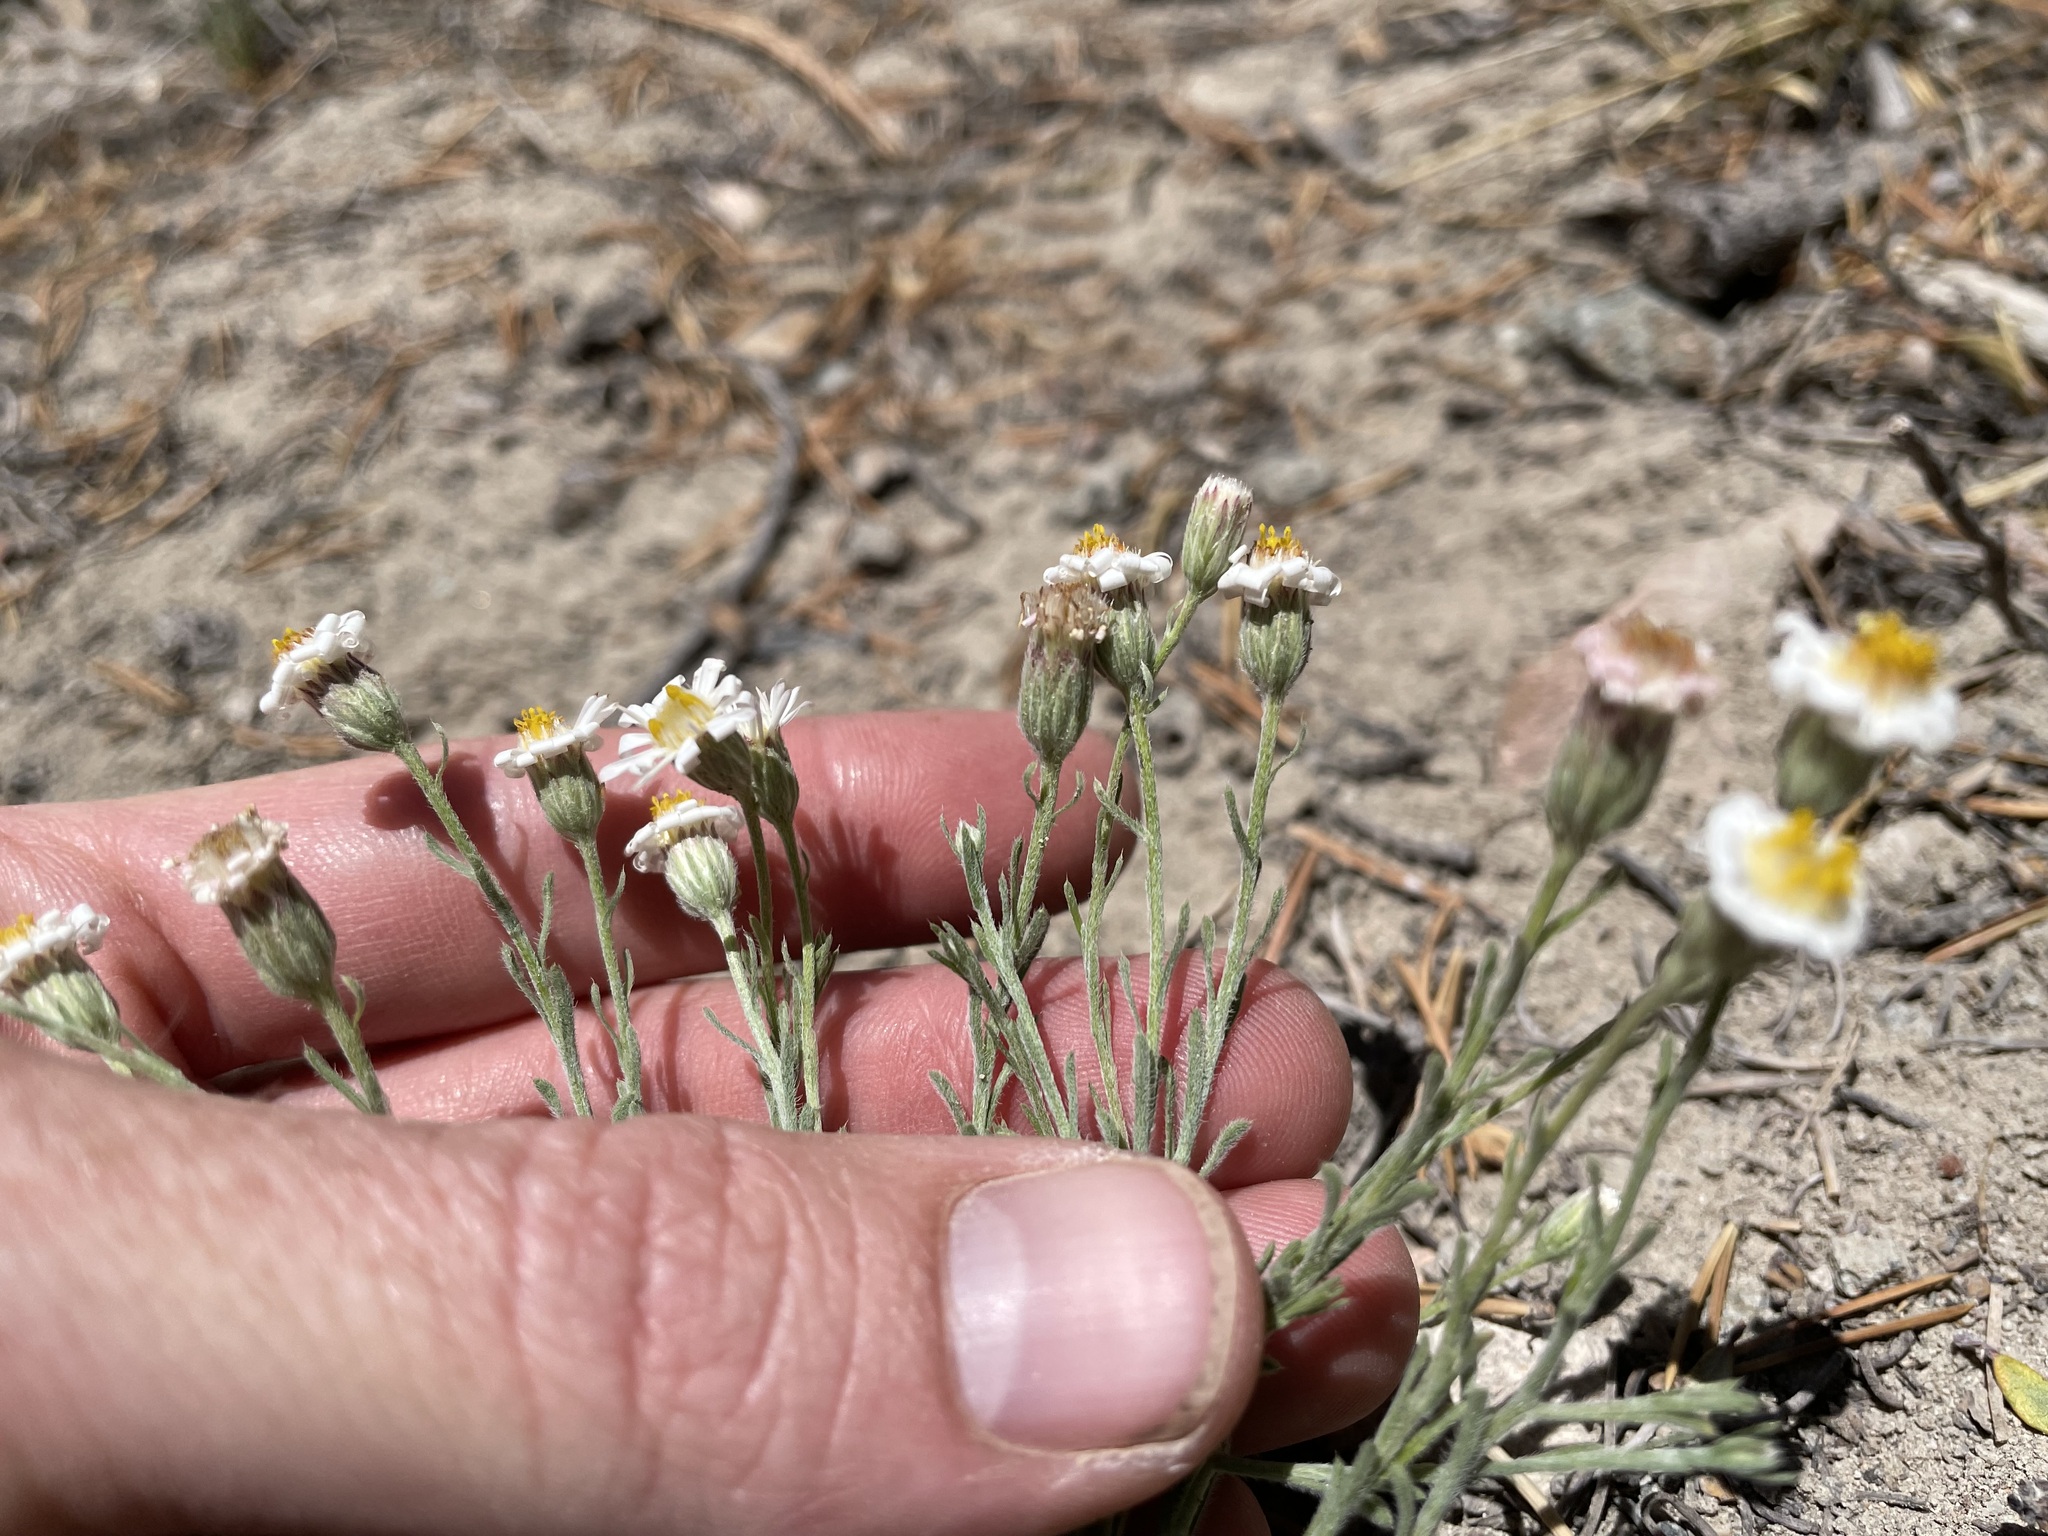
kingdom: Plantae
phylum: Tracheophyta
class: Magnoliopsida
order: Asterales
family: Asteraceae
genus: Chaetopappa
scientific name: Chaetopappa ericoides
